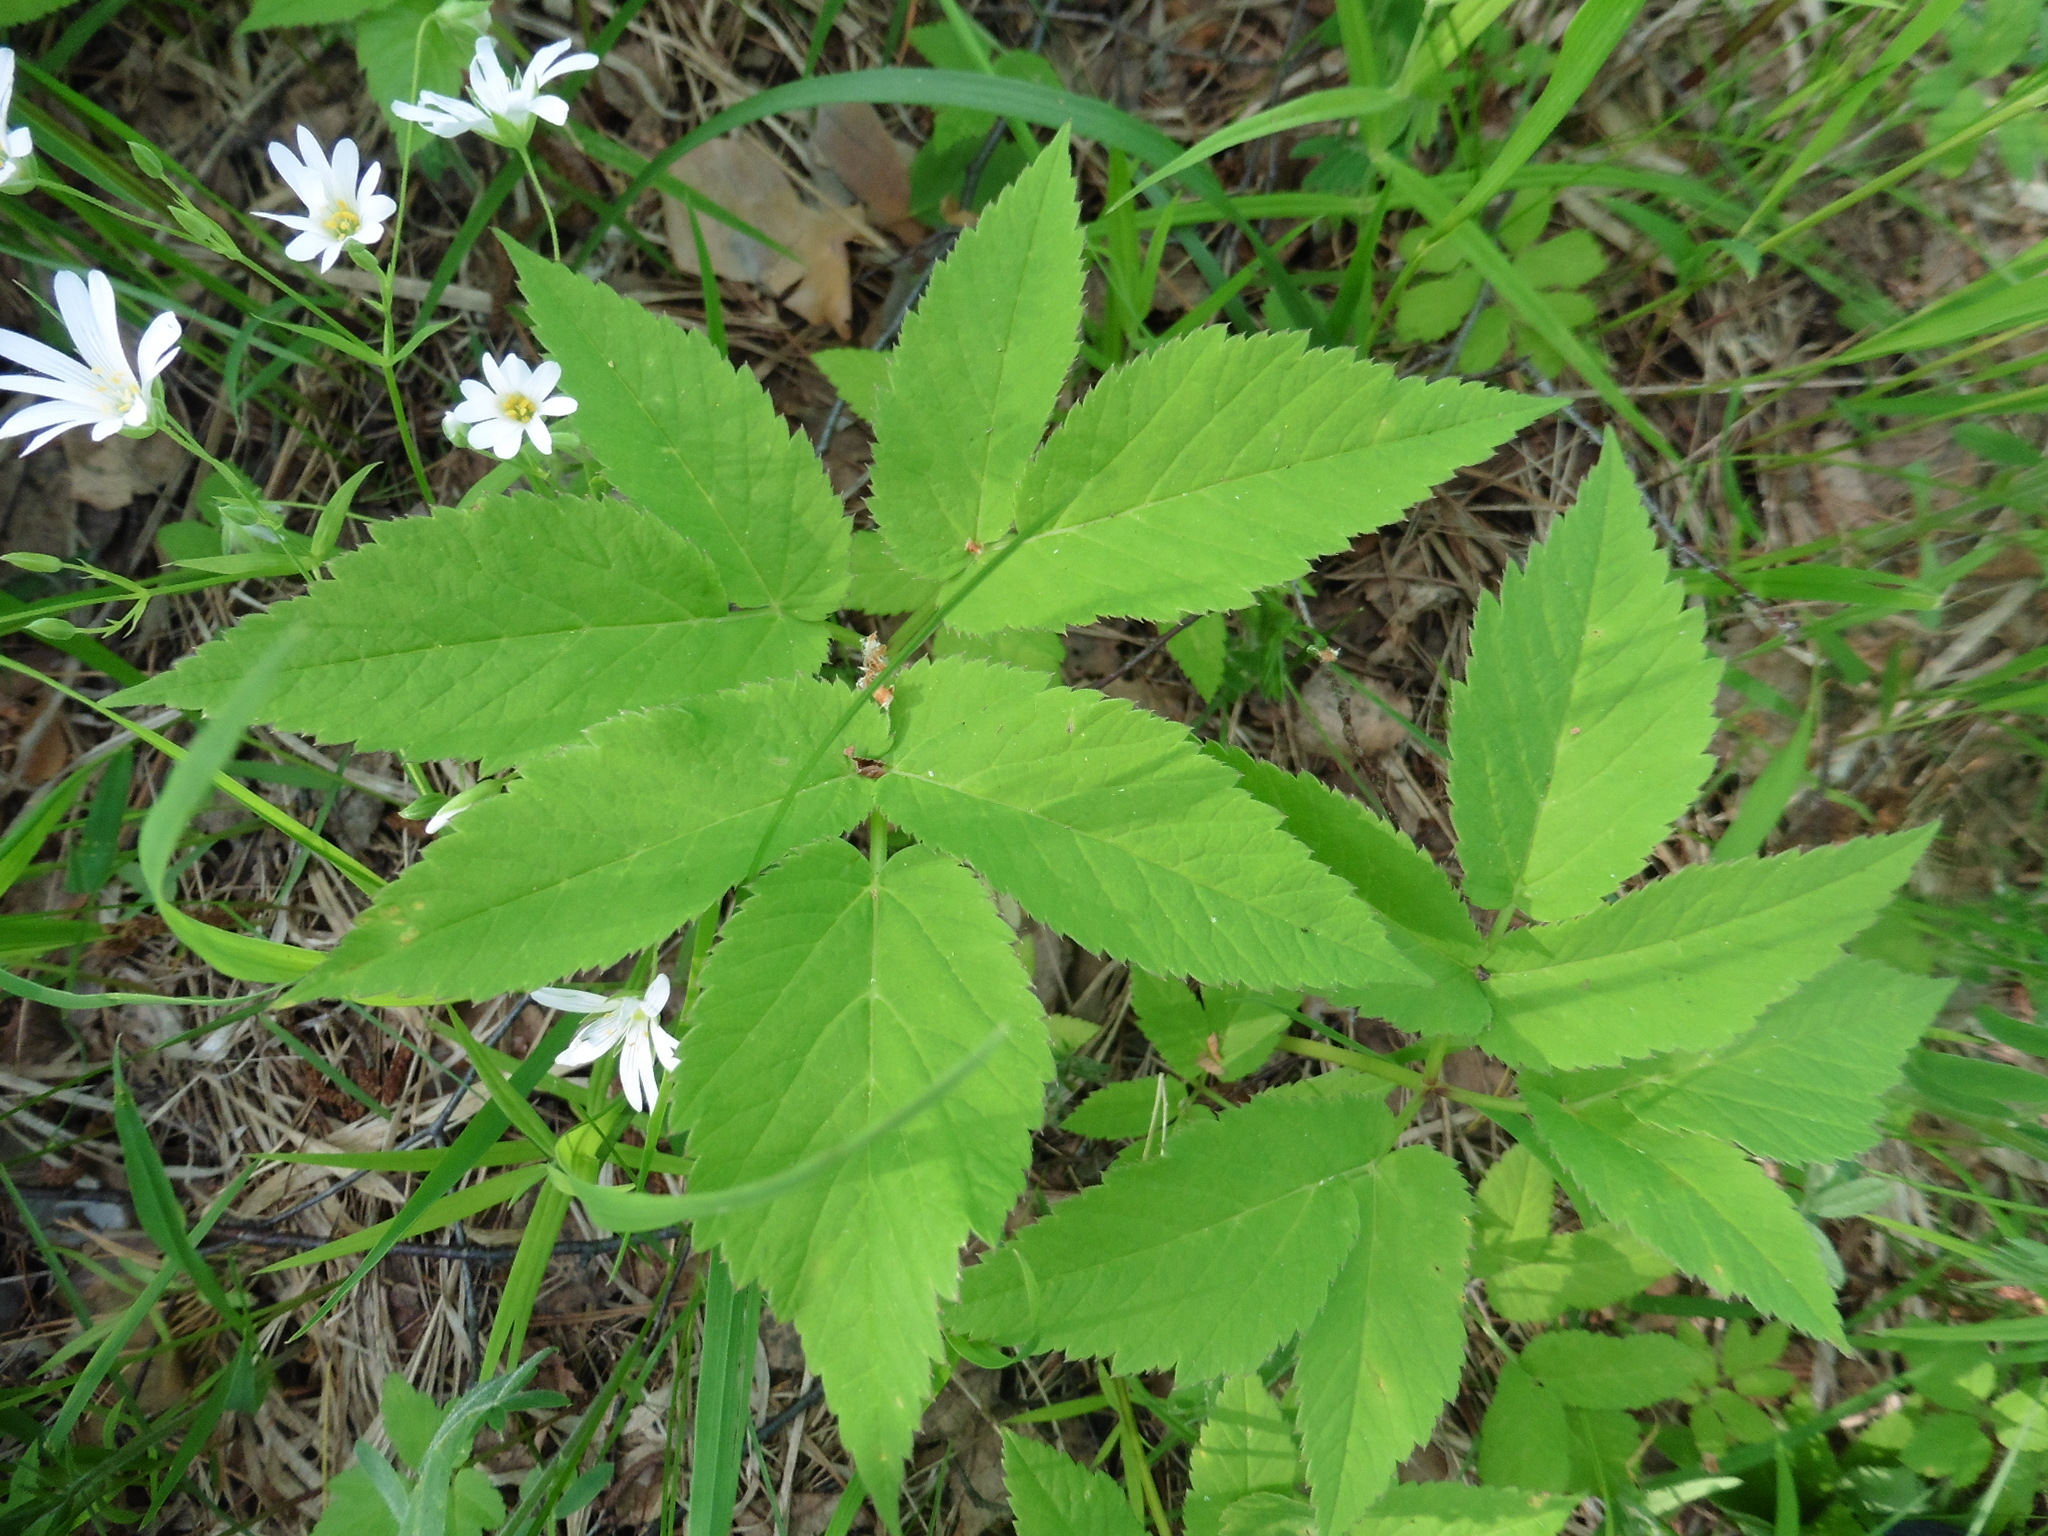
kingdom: Plantae
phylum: Tracheophyta
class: Magnoliopsida
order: Apiales
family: Apiaceae
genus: Aegopodium
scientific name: Aegopodium podagraria
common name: Ground-elder
